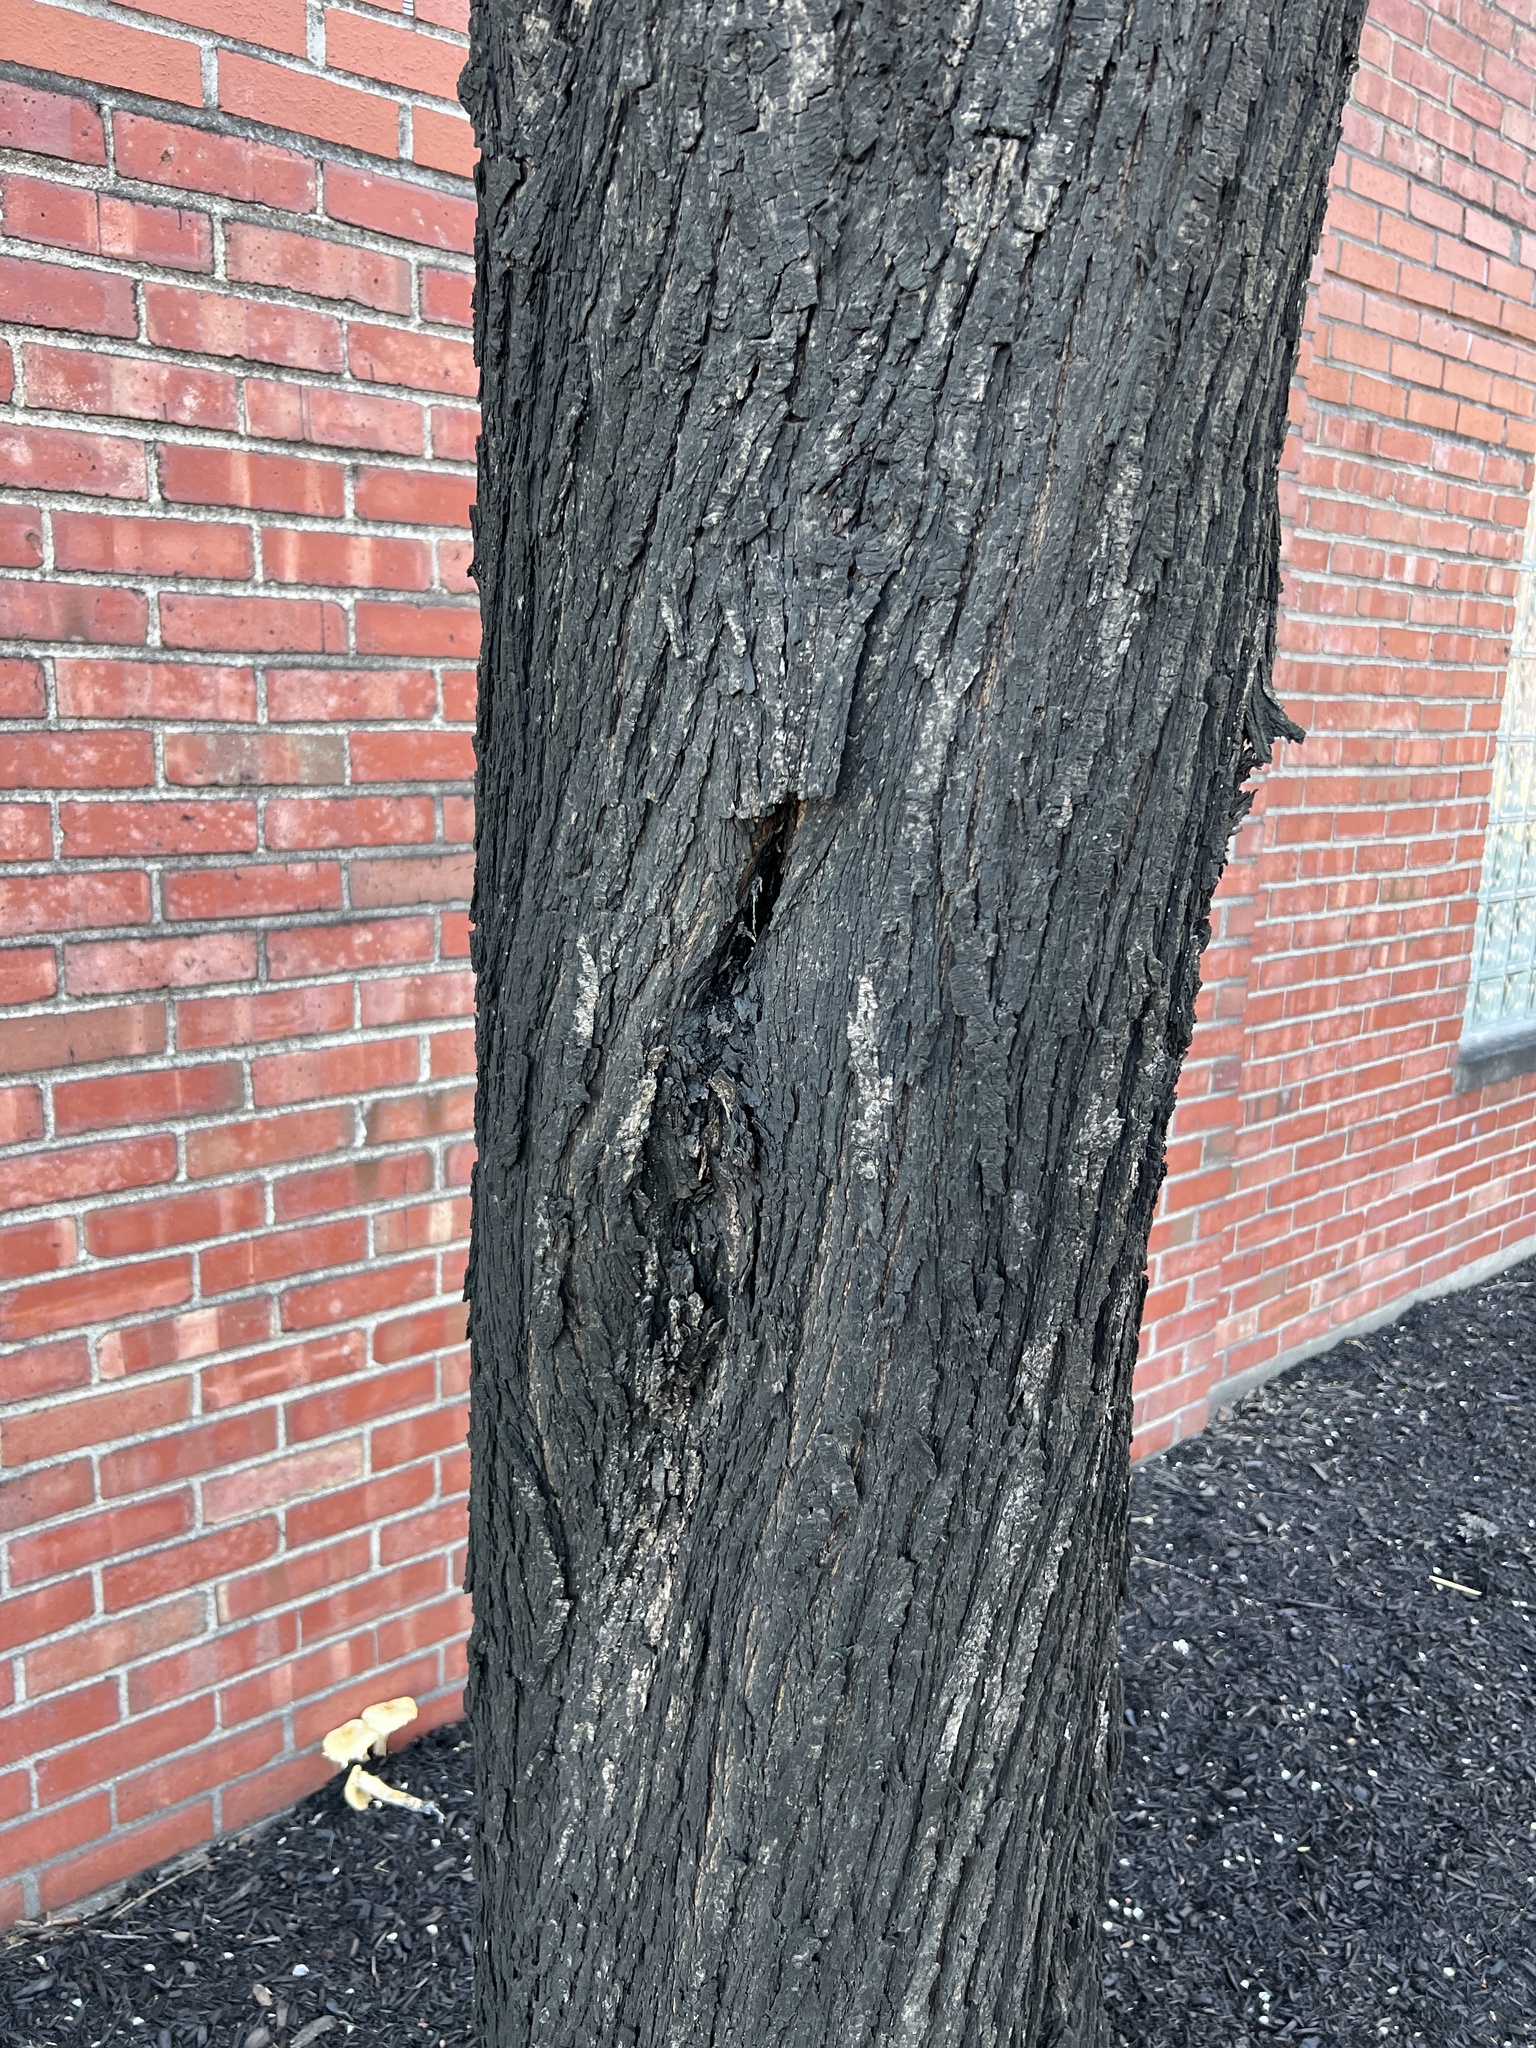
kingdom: Fungi
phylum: Ascomycota
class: Dothideomycetes
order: Capnodiales
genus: Baudoinia
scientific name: Baudoinia compniacensis
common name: Angel's share
